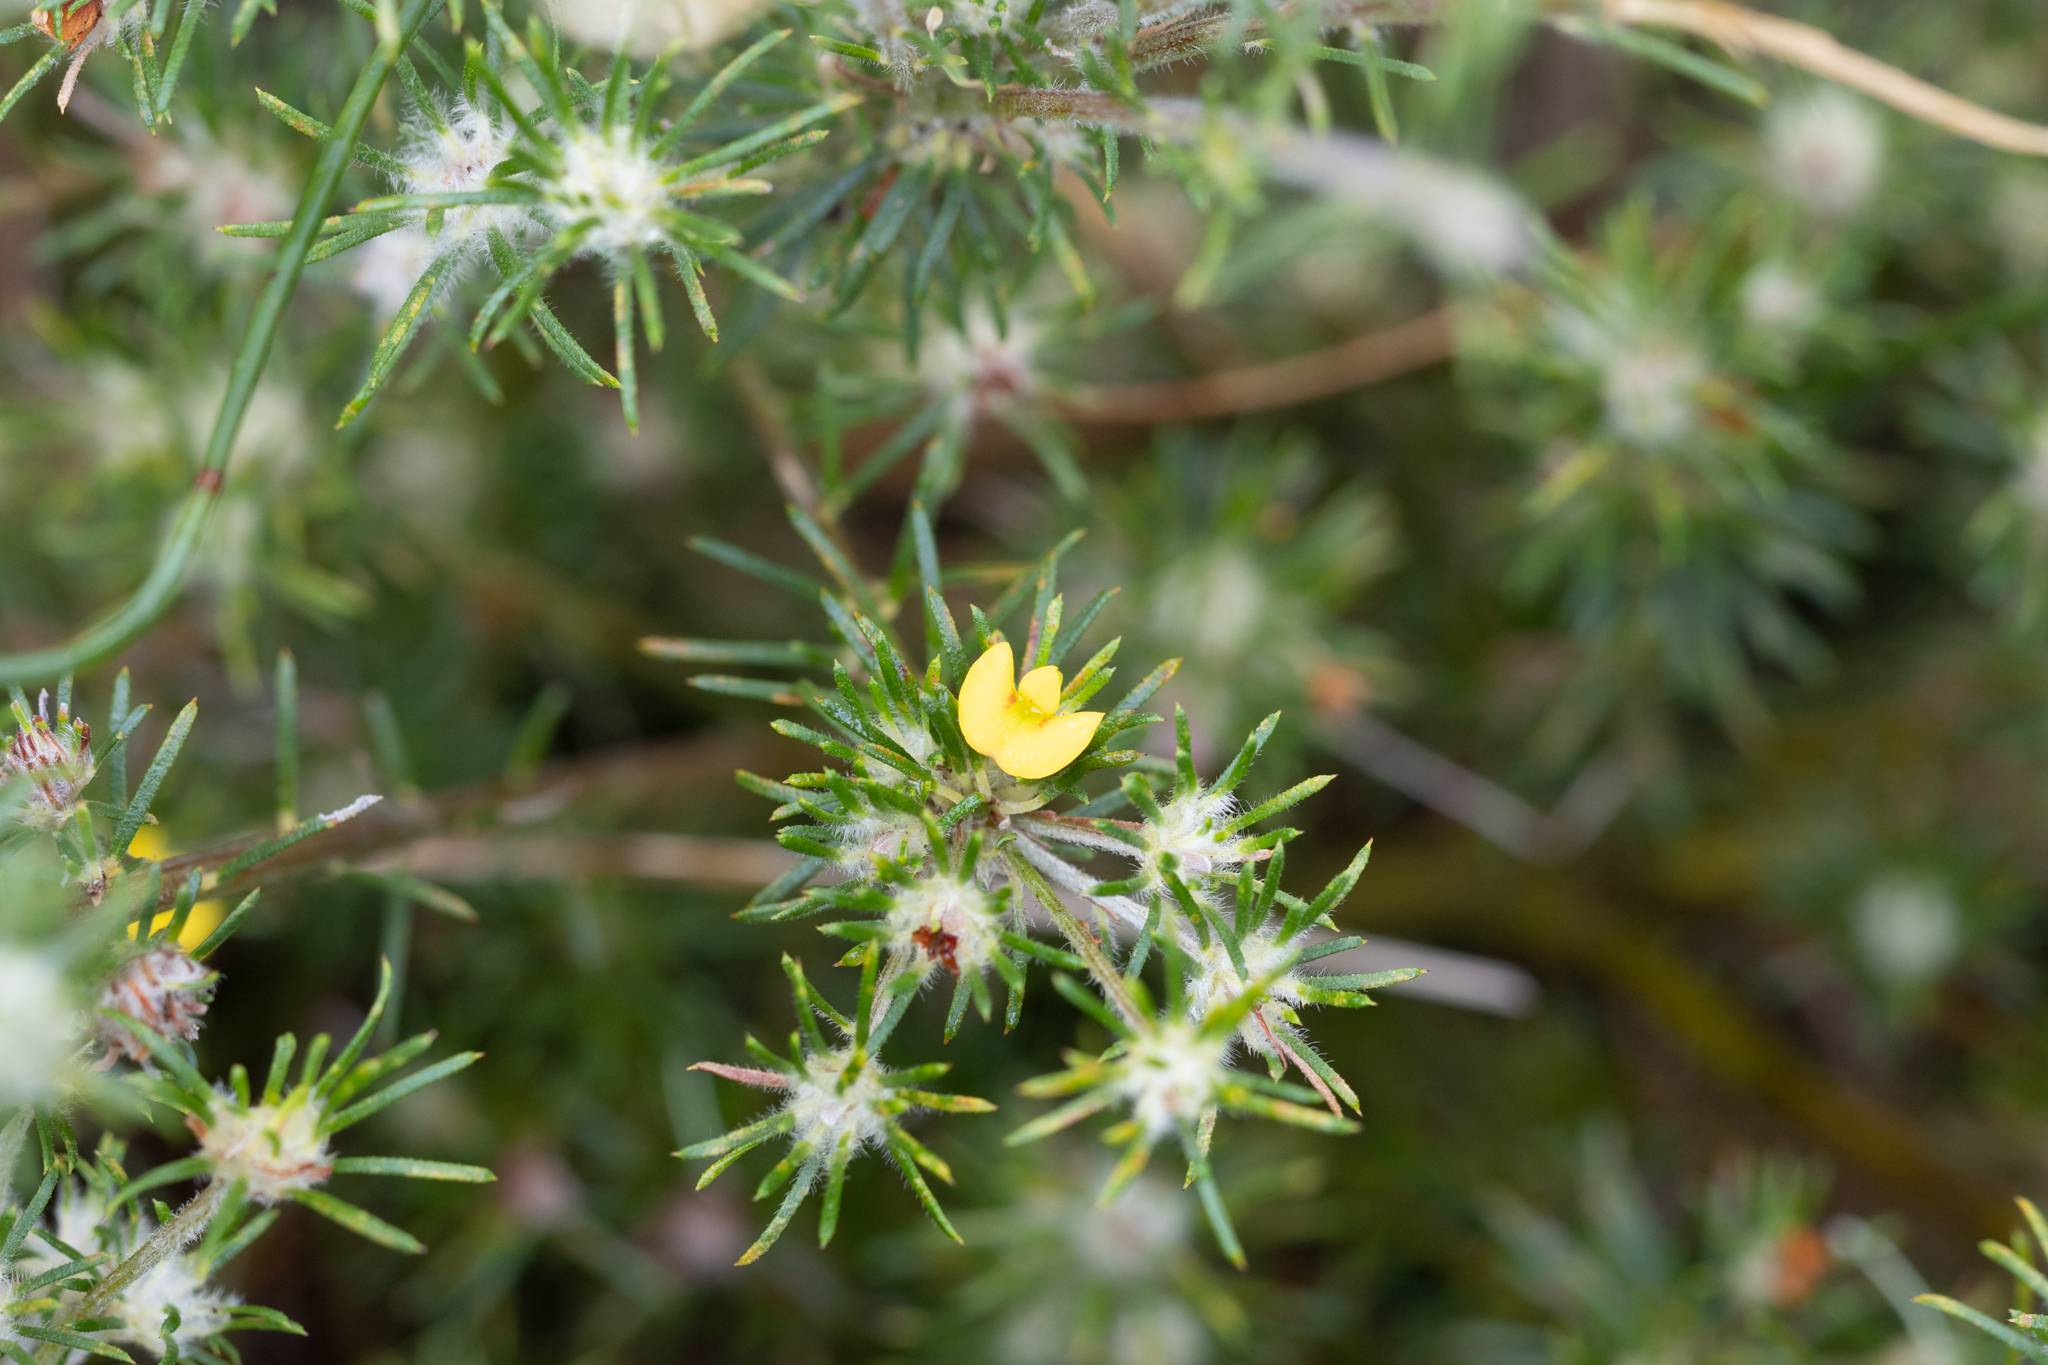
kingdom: Plantae
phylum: Tracheophyta
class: Magnoliopsida
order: Fabales
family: Fabaceae
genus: Phyllota
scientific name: Phyllota pleurandroides
